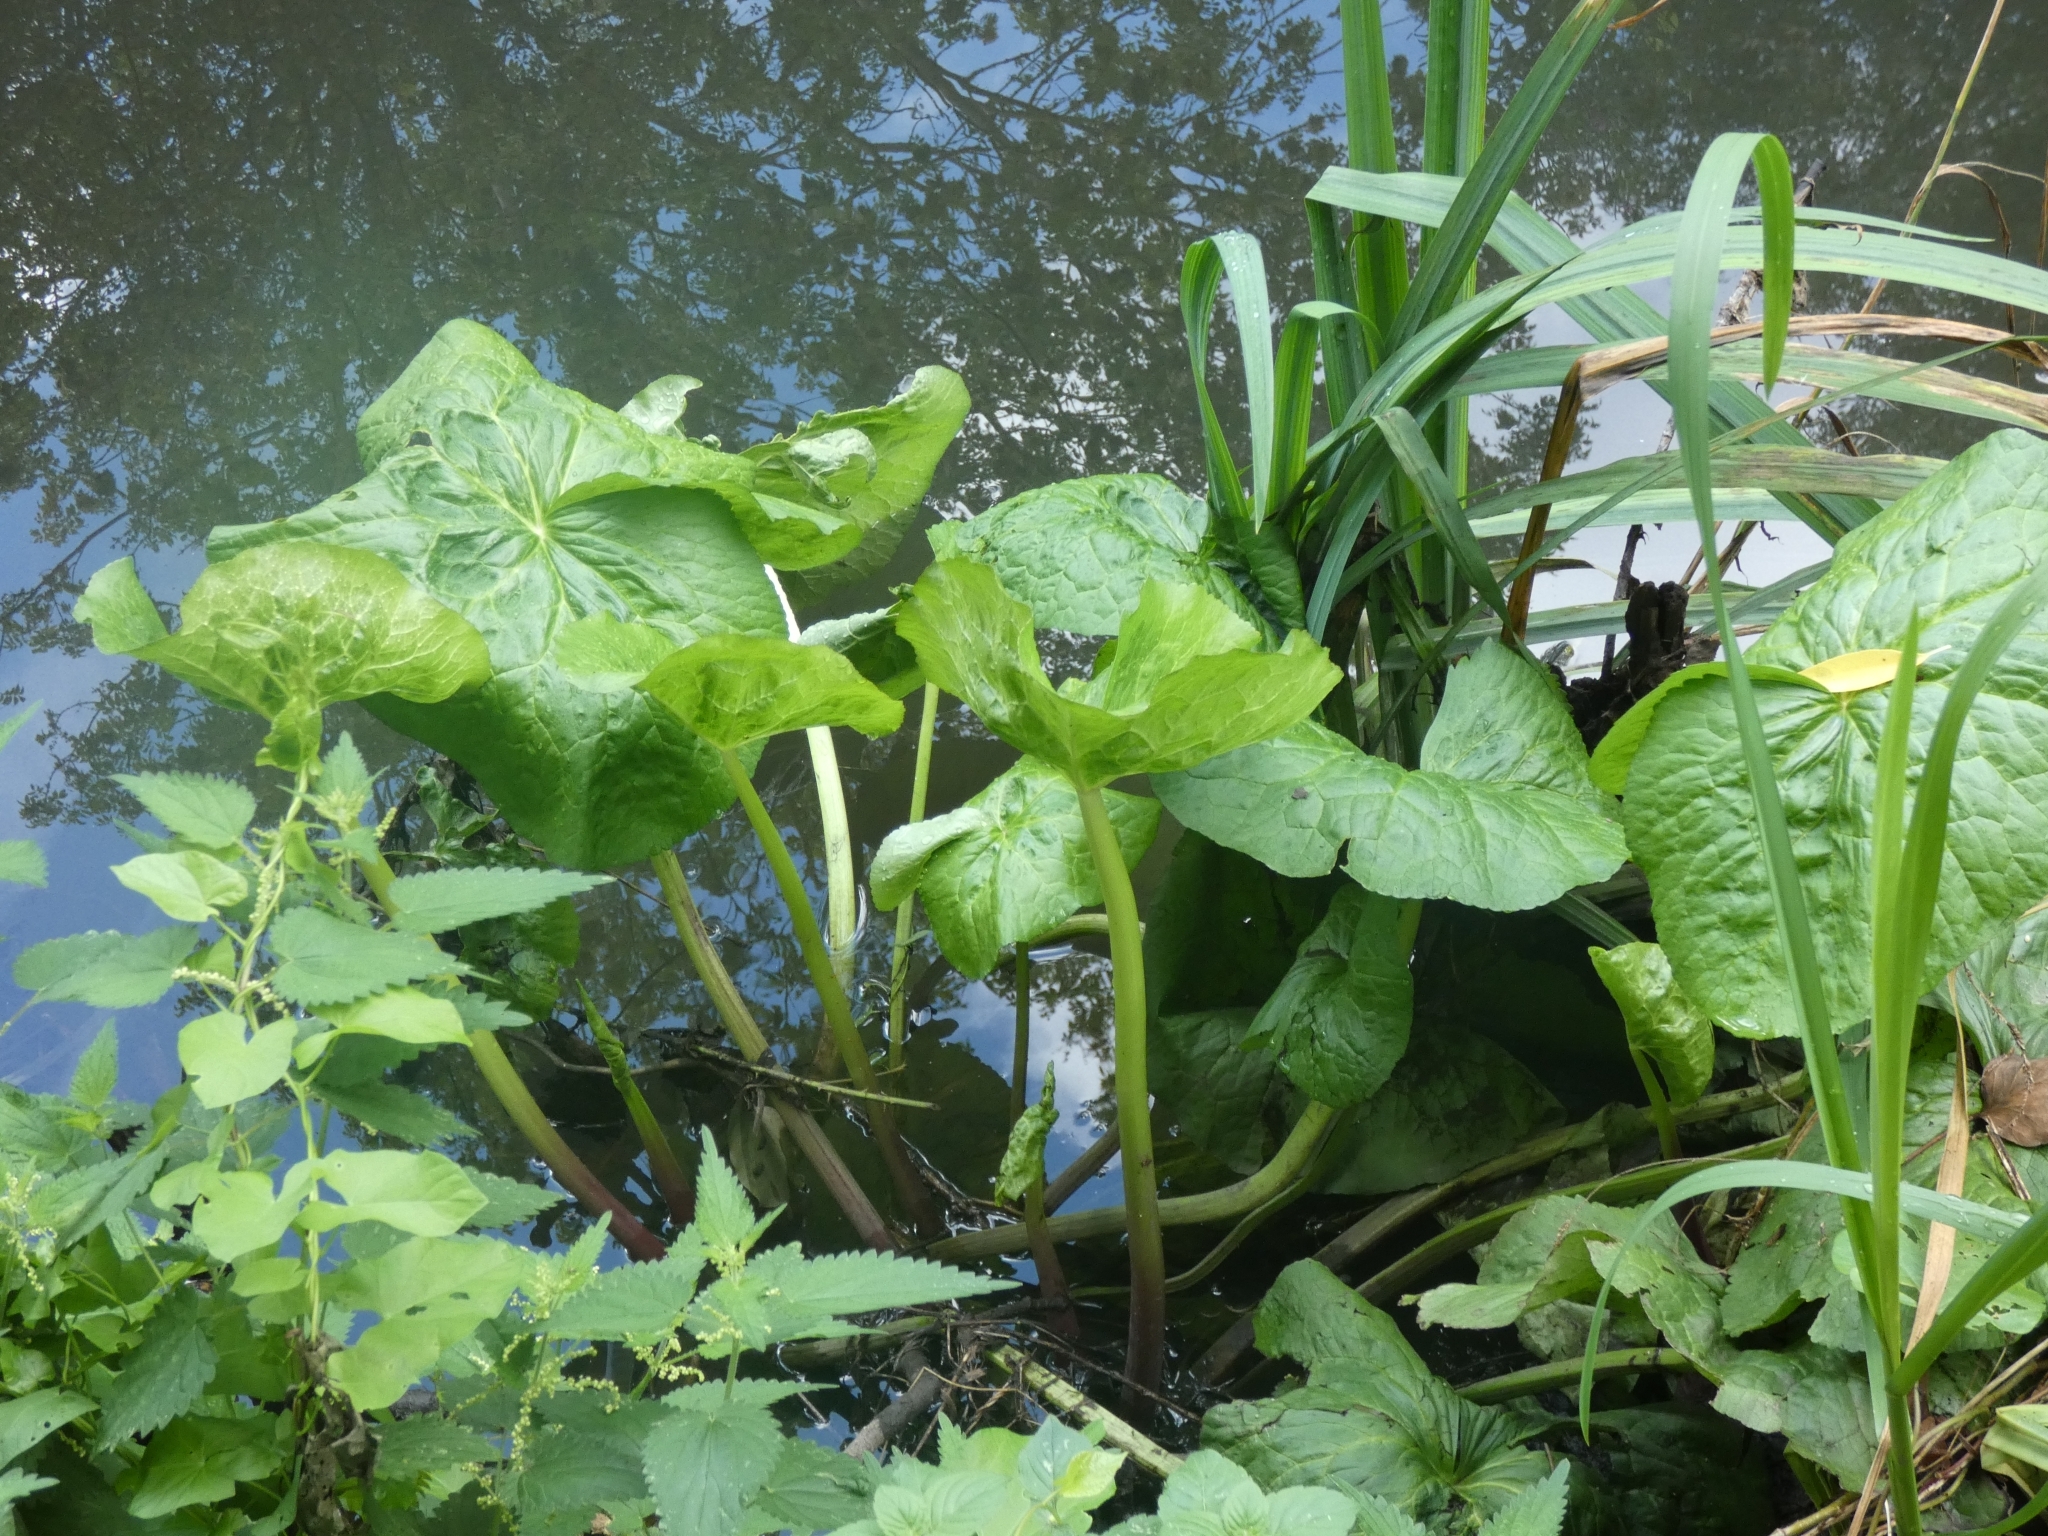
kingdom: Plantae
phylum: Tracheophyta
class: Magnoliopsida
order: Ranunculales
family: Ranunculaceae
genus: Caltha
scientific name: Caltha palustris
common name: Marsh marigold
